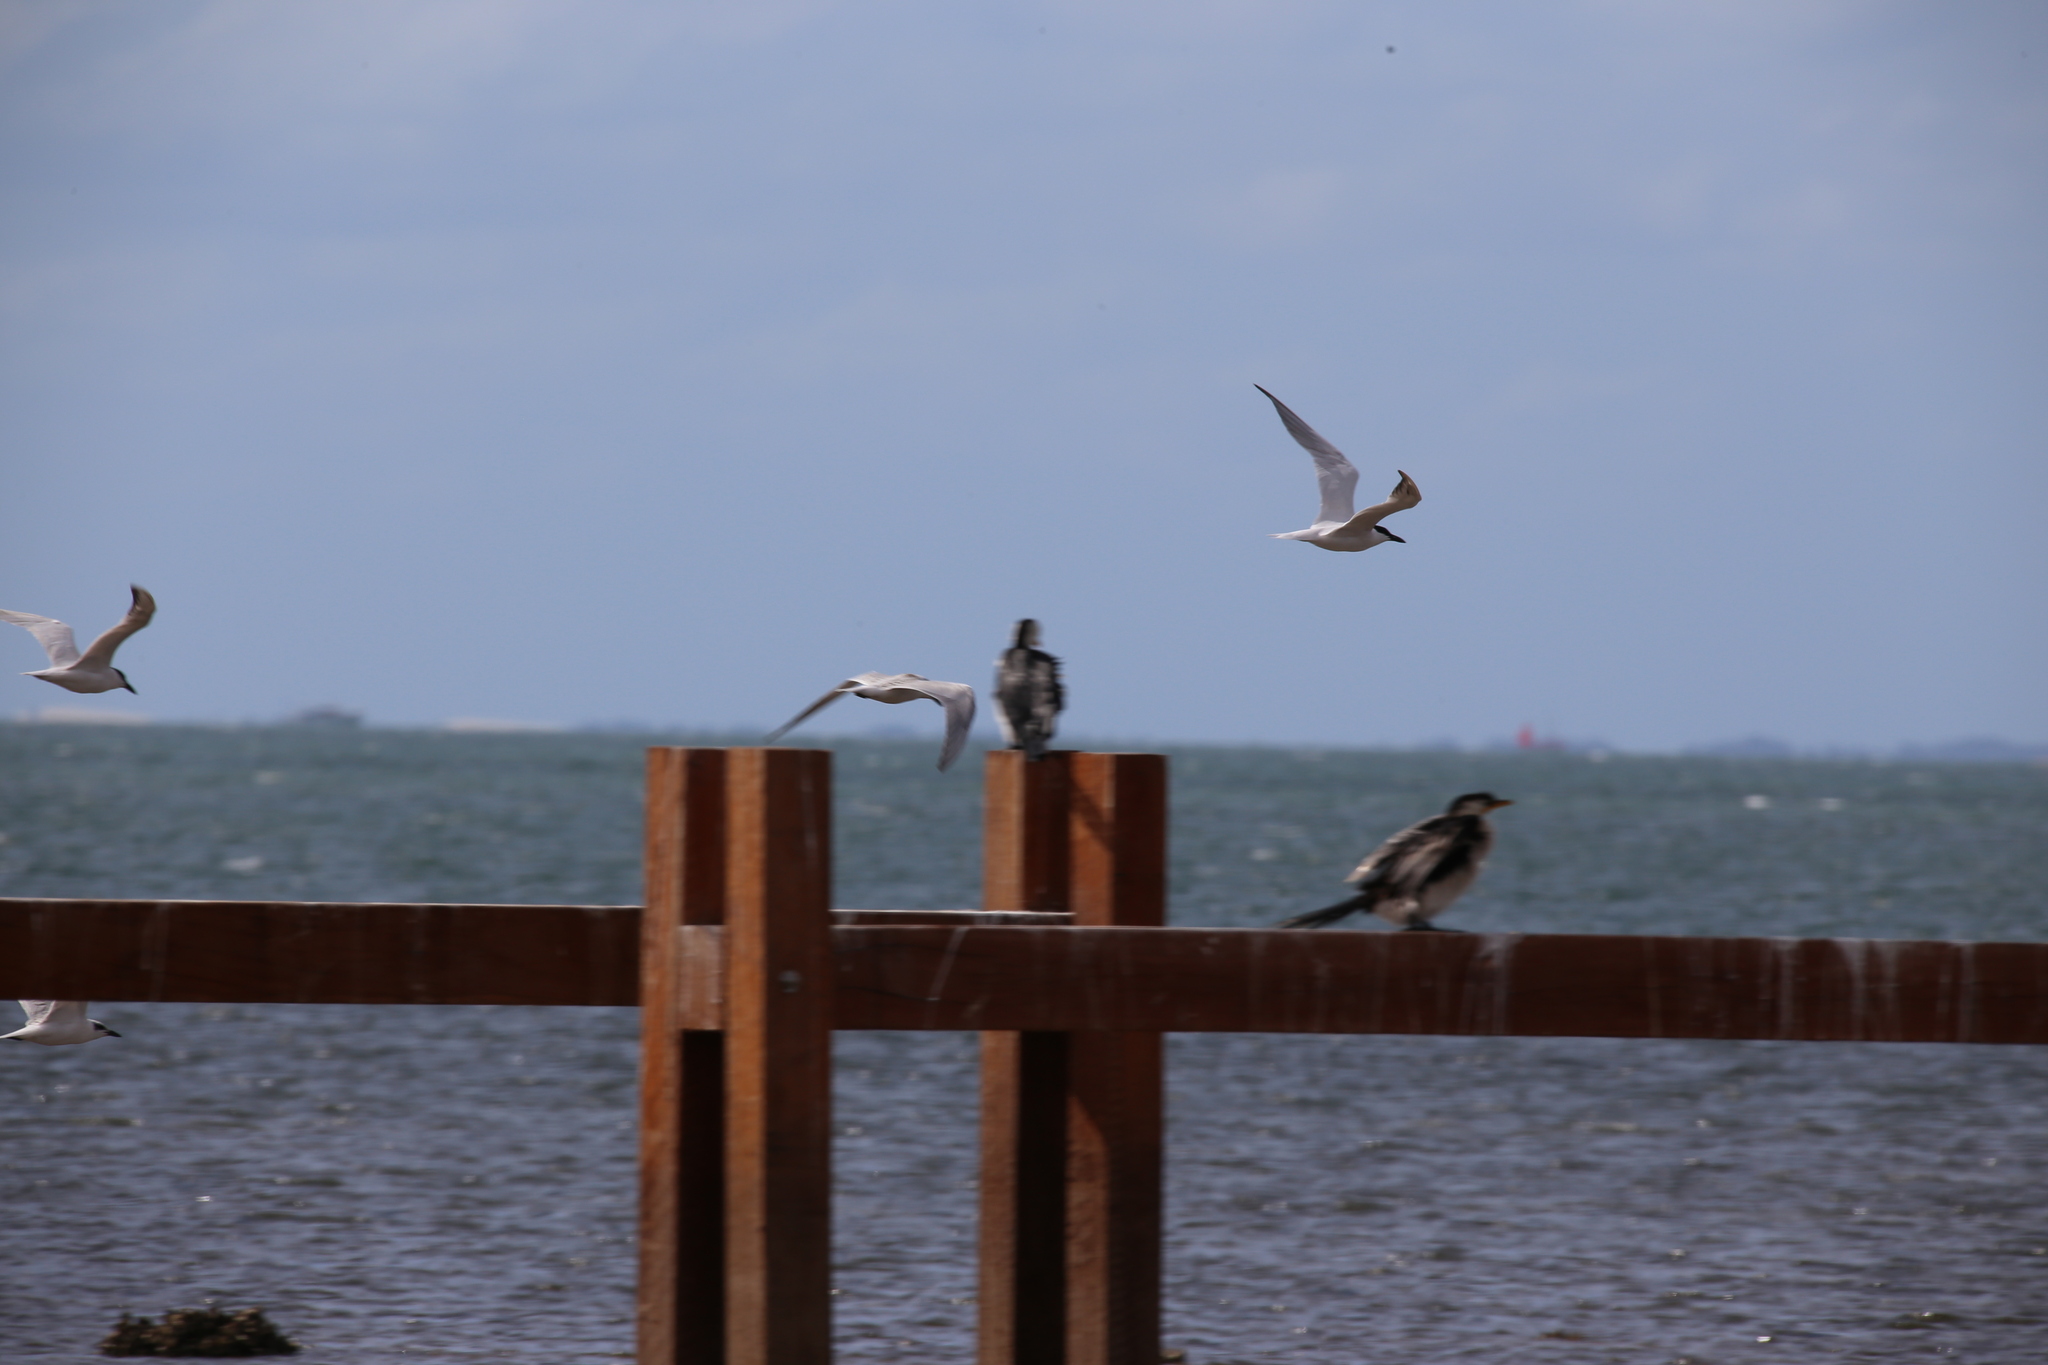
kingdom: Animalia
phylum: Chordata
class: Aves
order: Charadriiformes
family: Laridae
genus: Gelochelidon
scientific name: Gelochelidon macrotarsa
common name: Australian tern
